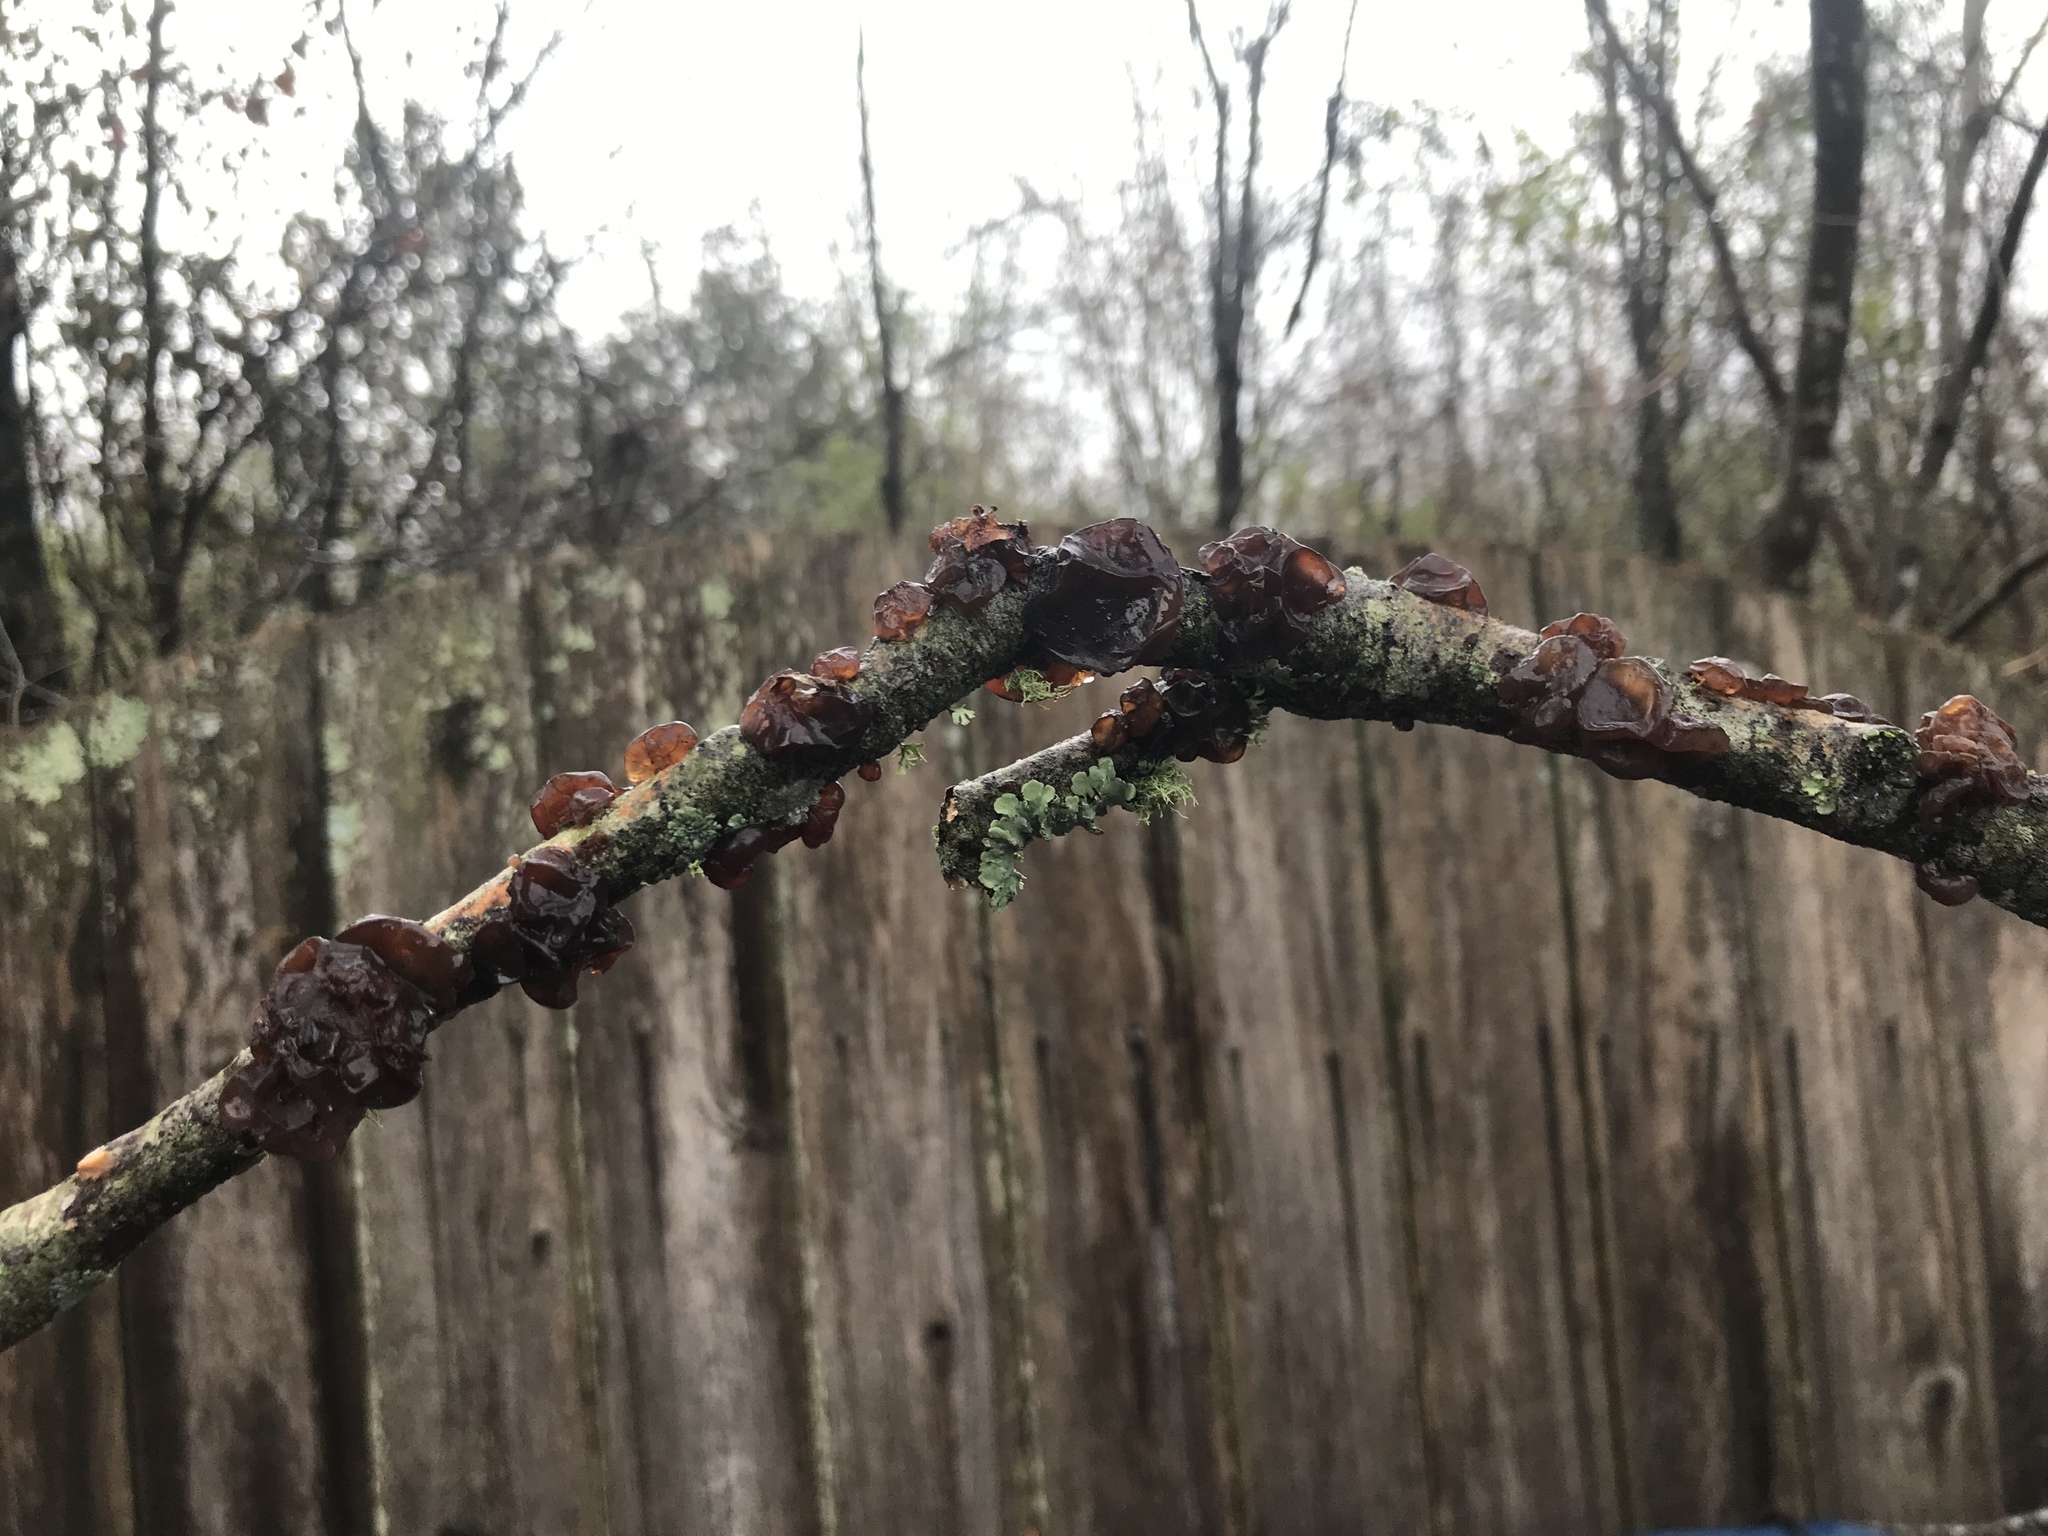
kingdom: Fungi
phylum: Basidiomycota
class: Agaricomycetes
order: Auriculariales
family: Auriculariaceae
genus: Exidia
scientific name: Exidia
